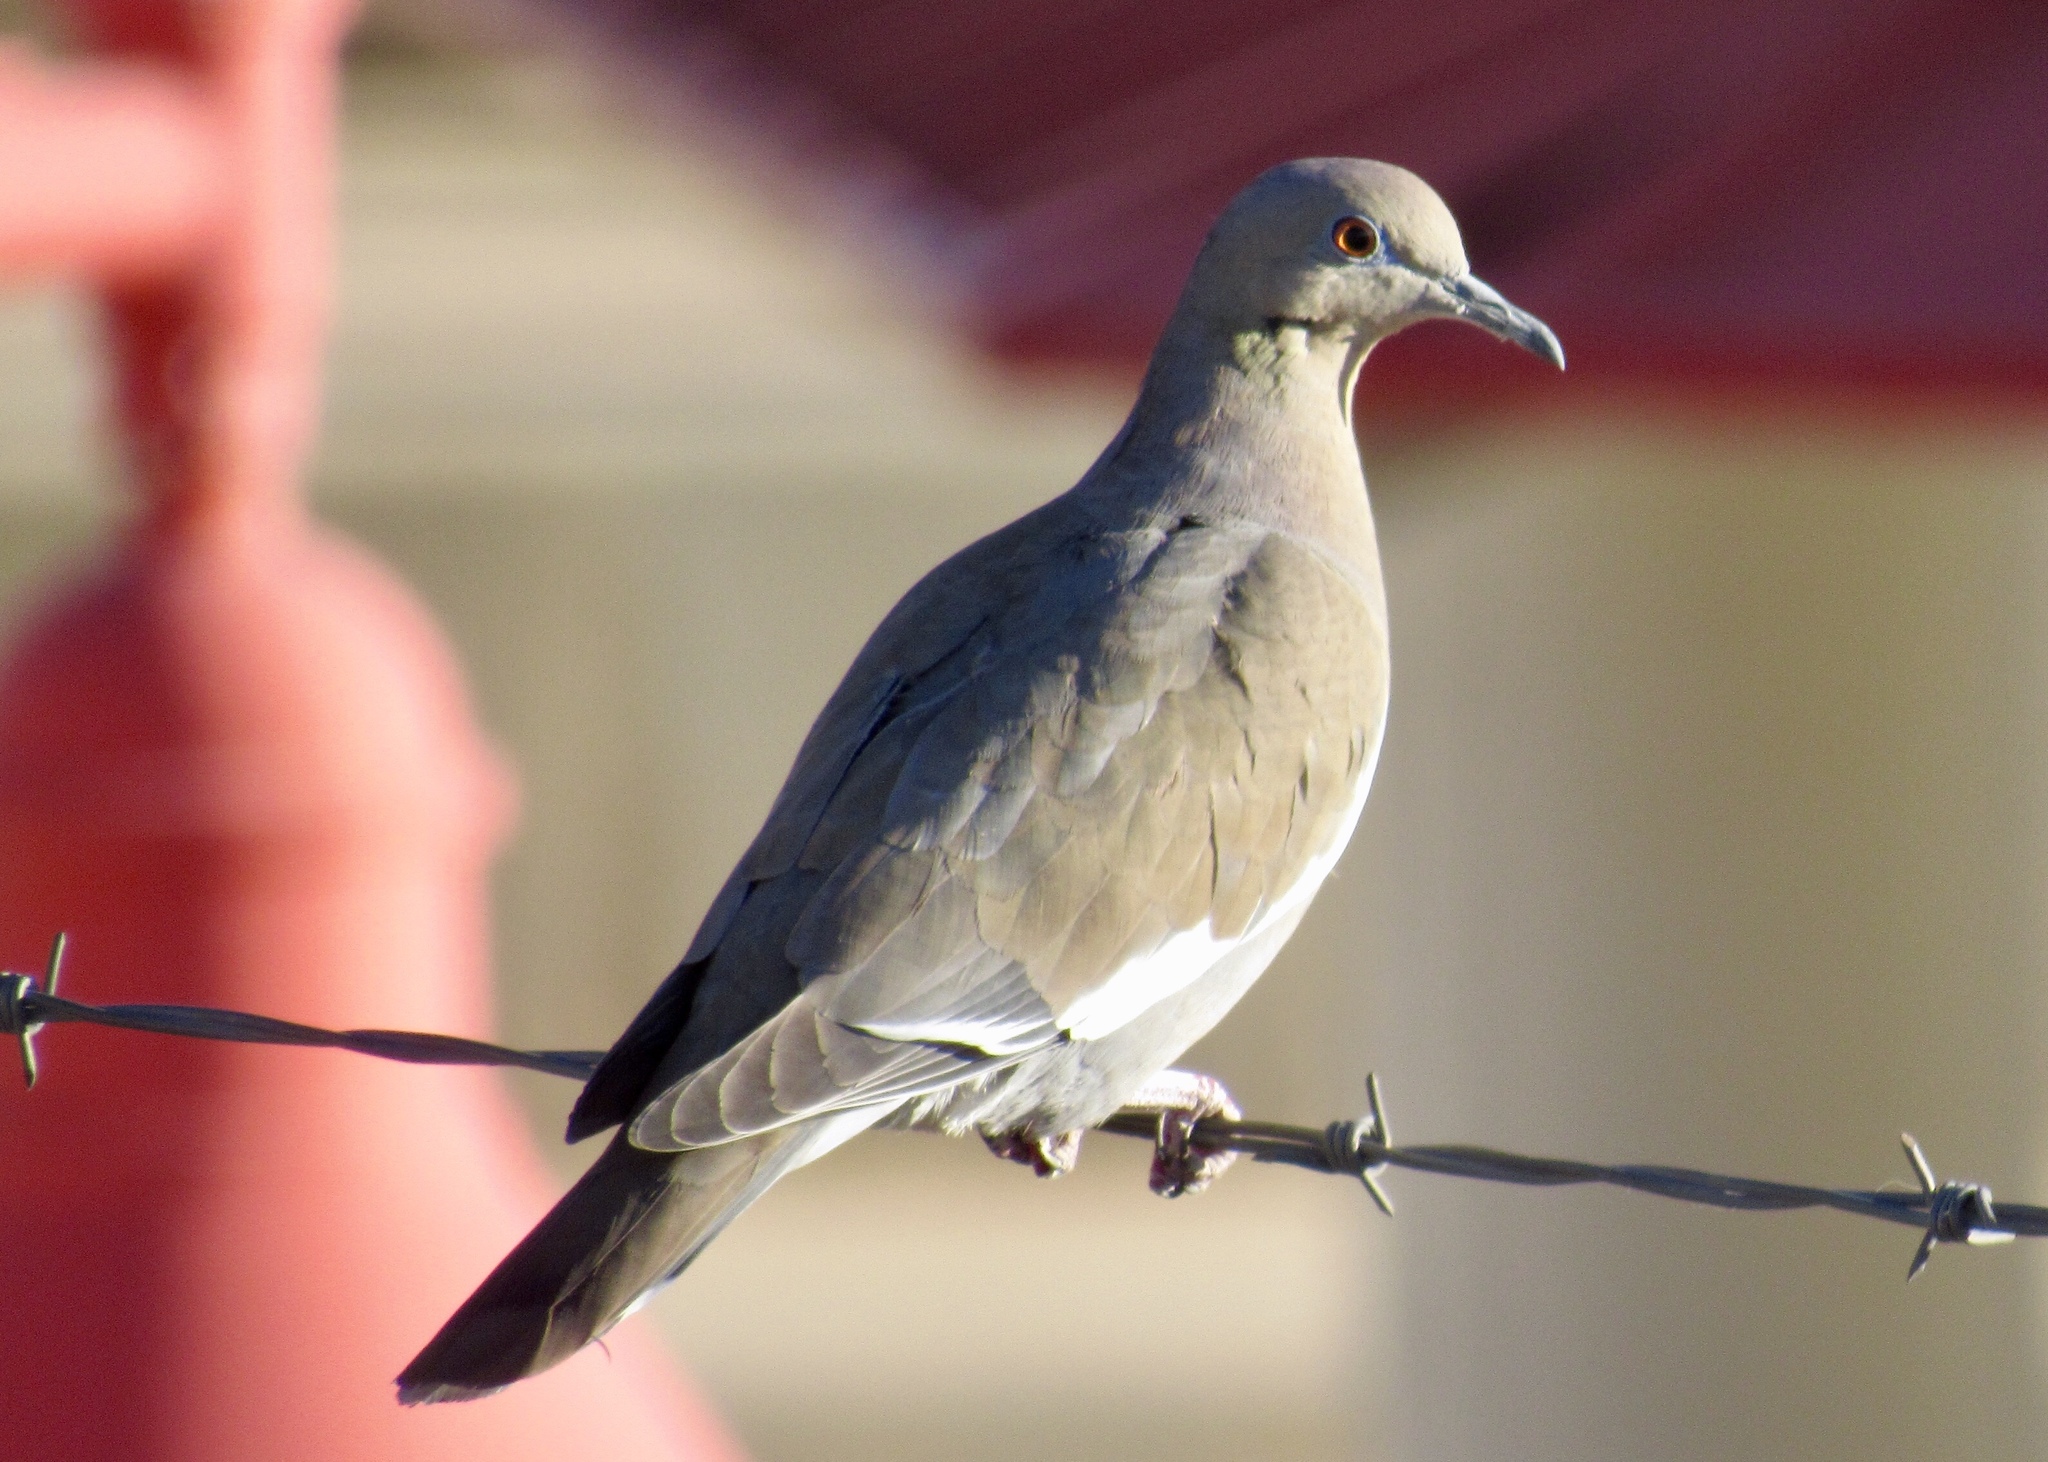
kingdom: Animalia
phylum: Chordata
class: Aves
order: Columbiformes
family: Columbidae
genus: Zenaida
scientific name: Zenaida asiatica
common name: White-winged dove
